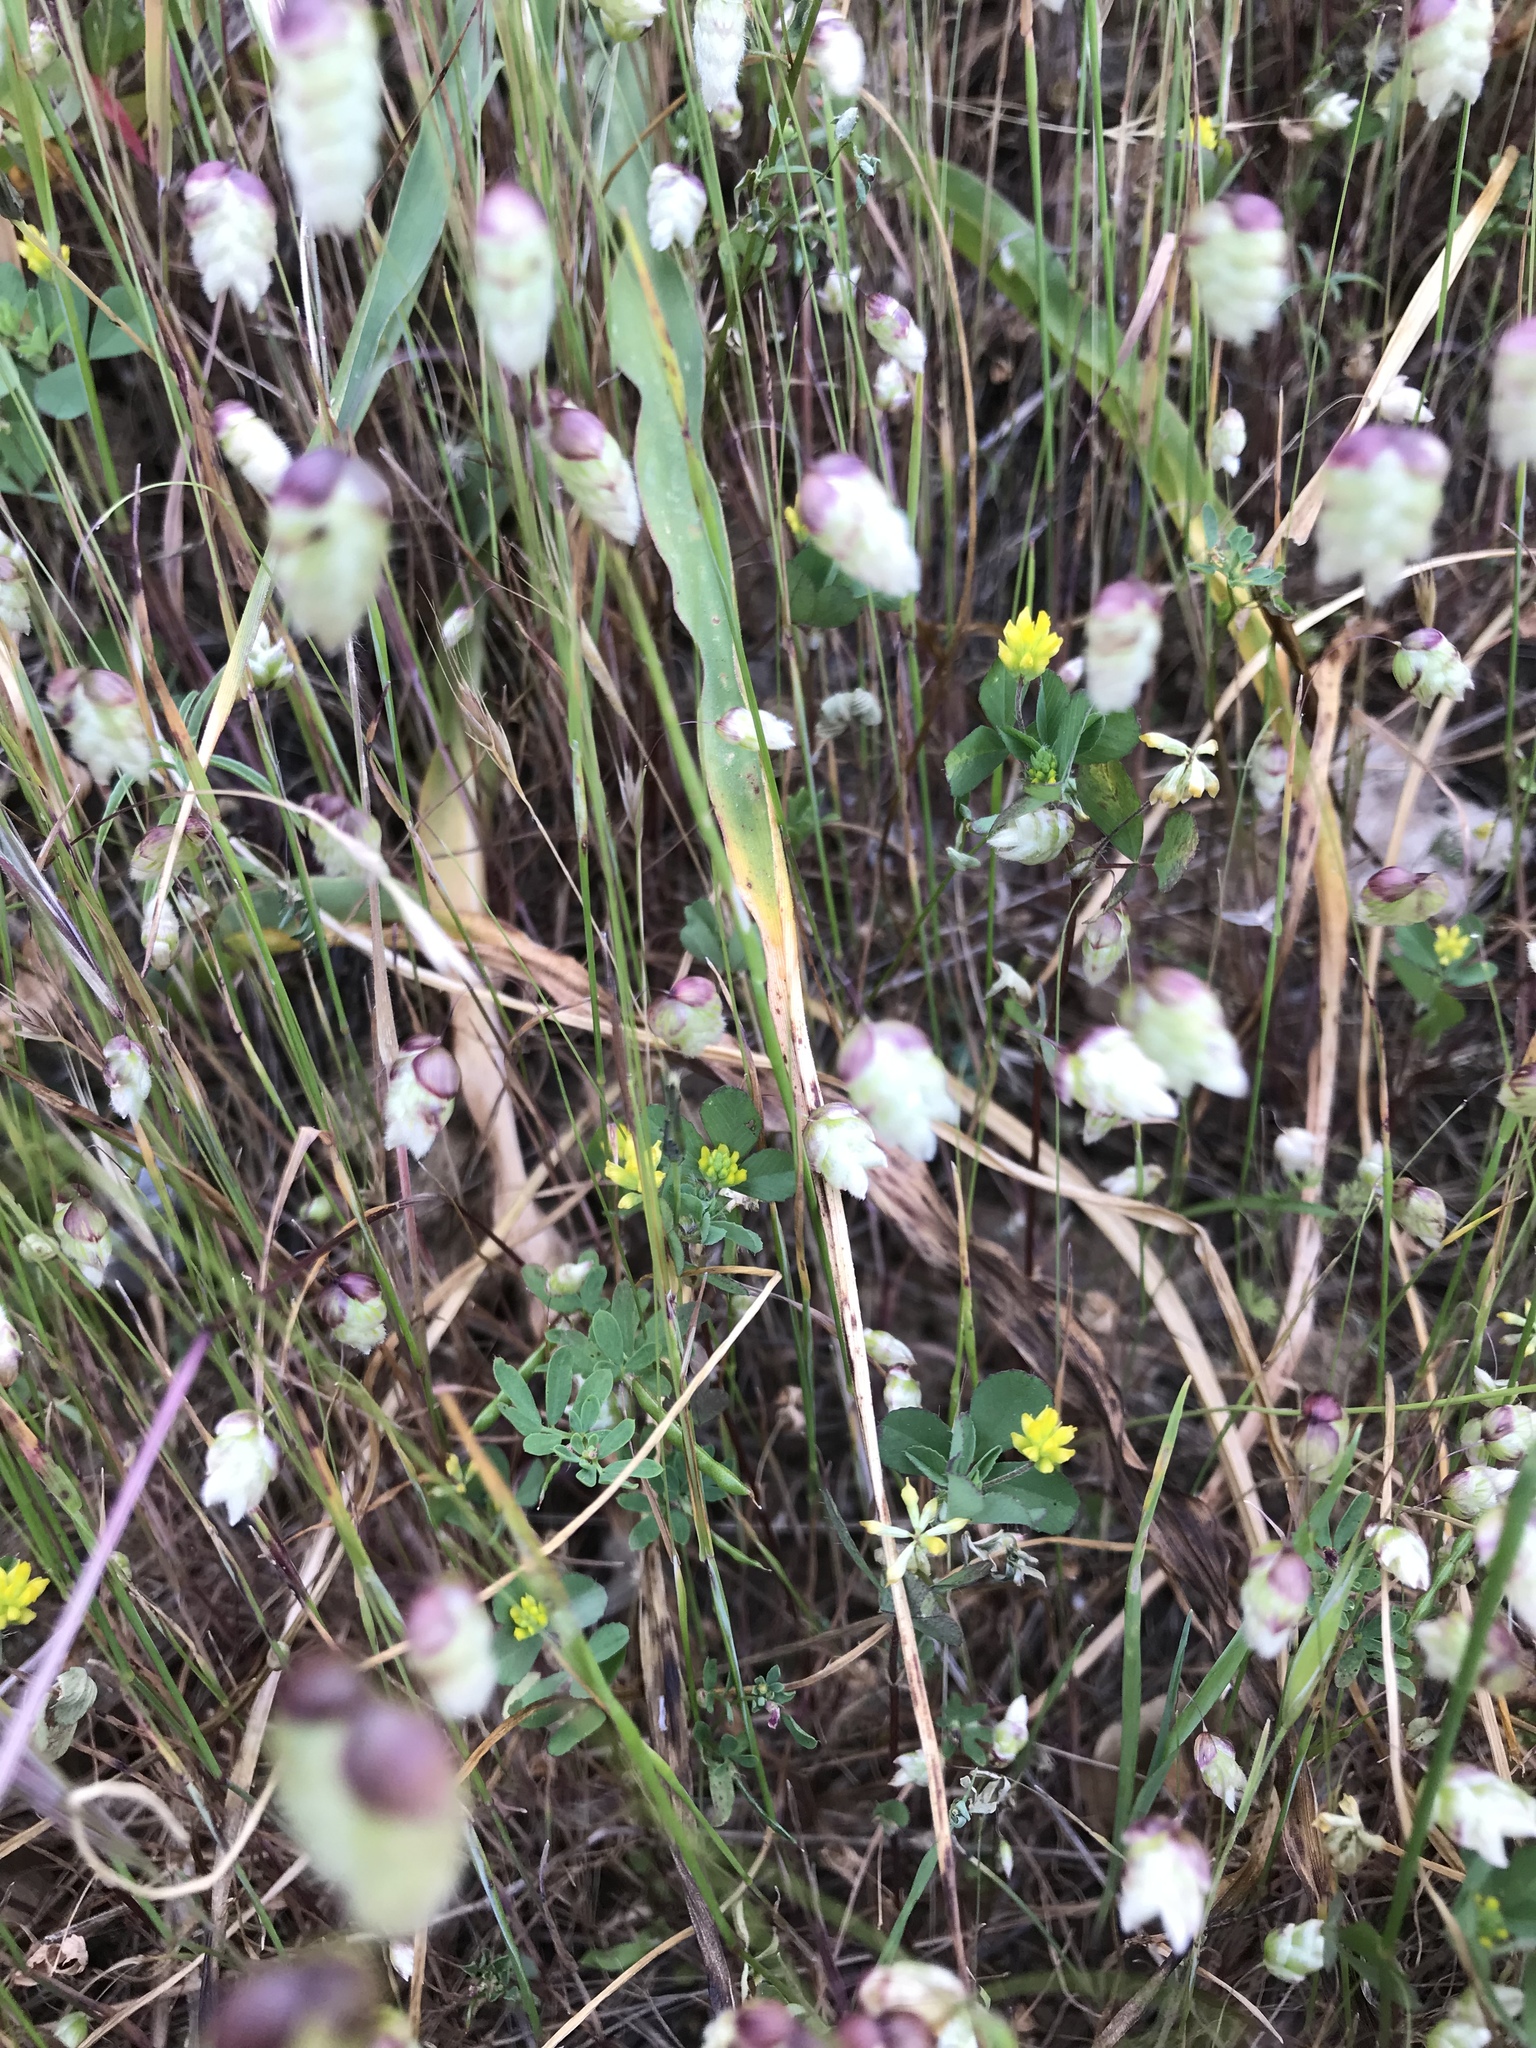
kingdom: Plantae
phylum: Tracheophyta
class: Magnoliopsida
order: Fabales
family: Fabaceae
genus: Trifolium
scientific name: Trifolium dubium
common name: Suckling clover
